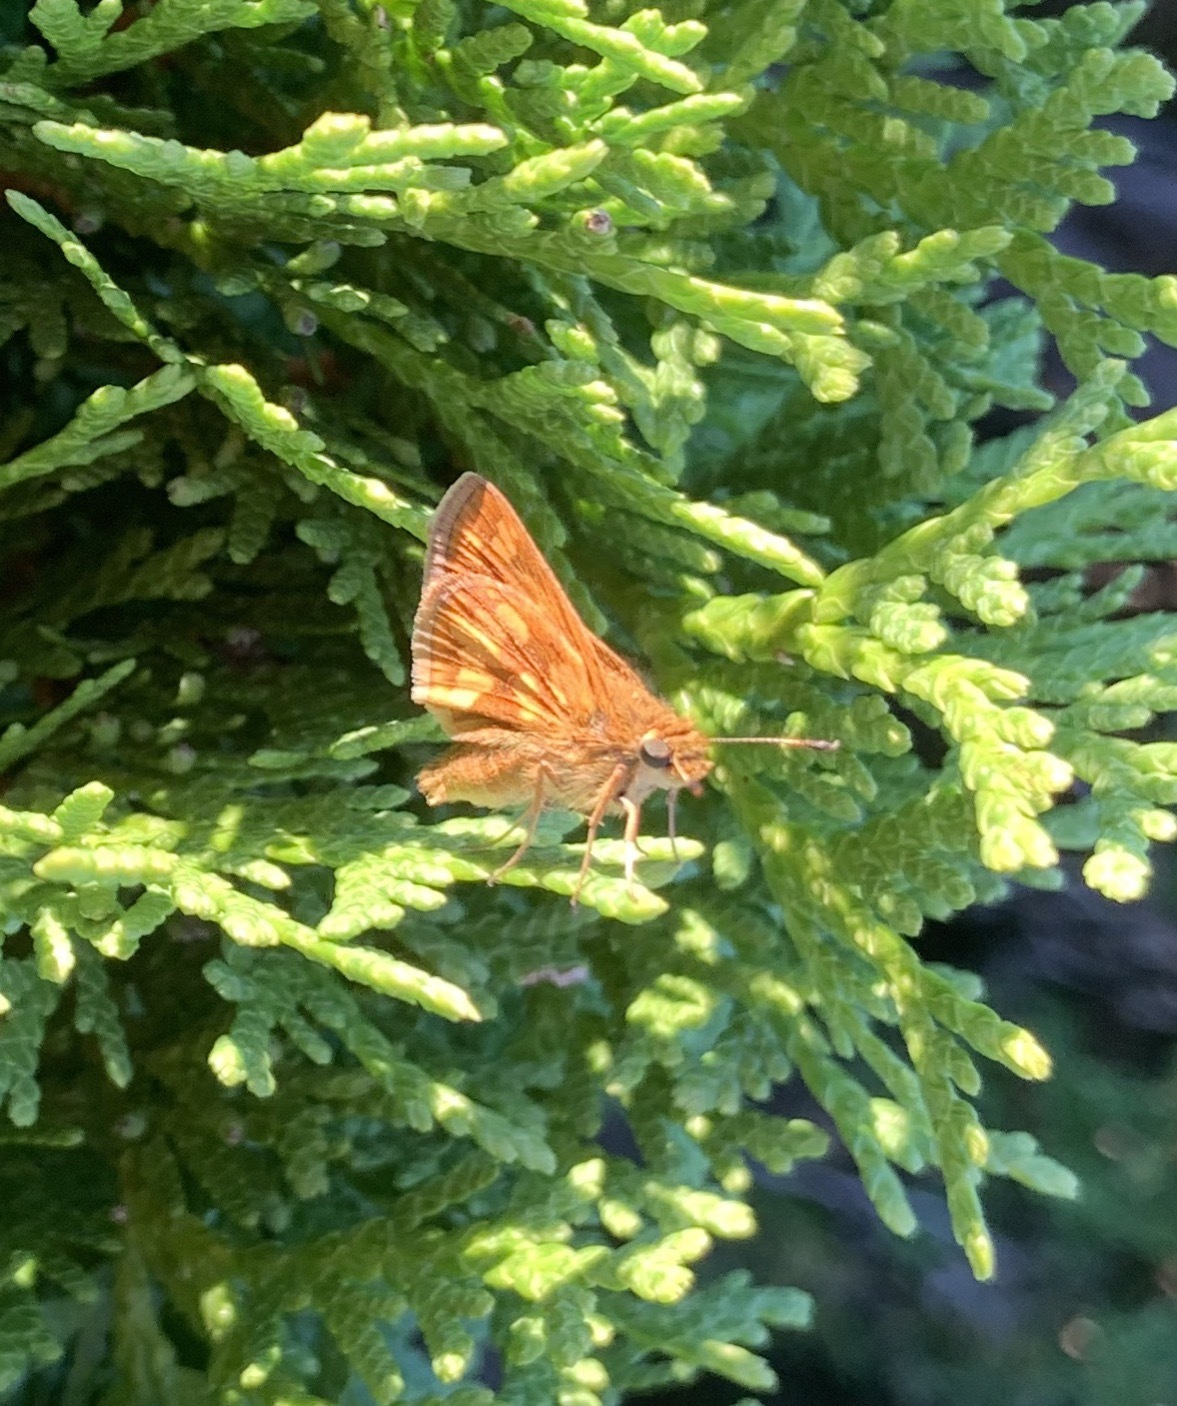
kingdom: Animalia
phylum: Arthropoda
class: Insecta
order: Lepidoptera
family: Hesperiidae
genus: Polites
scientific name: Polites coras
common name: Peck's skipper
